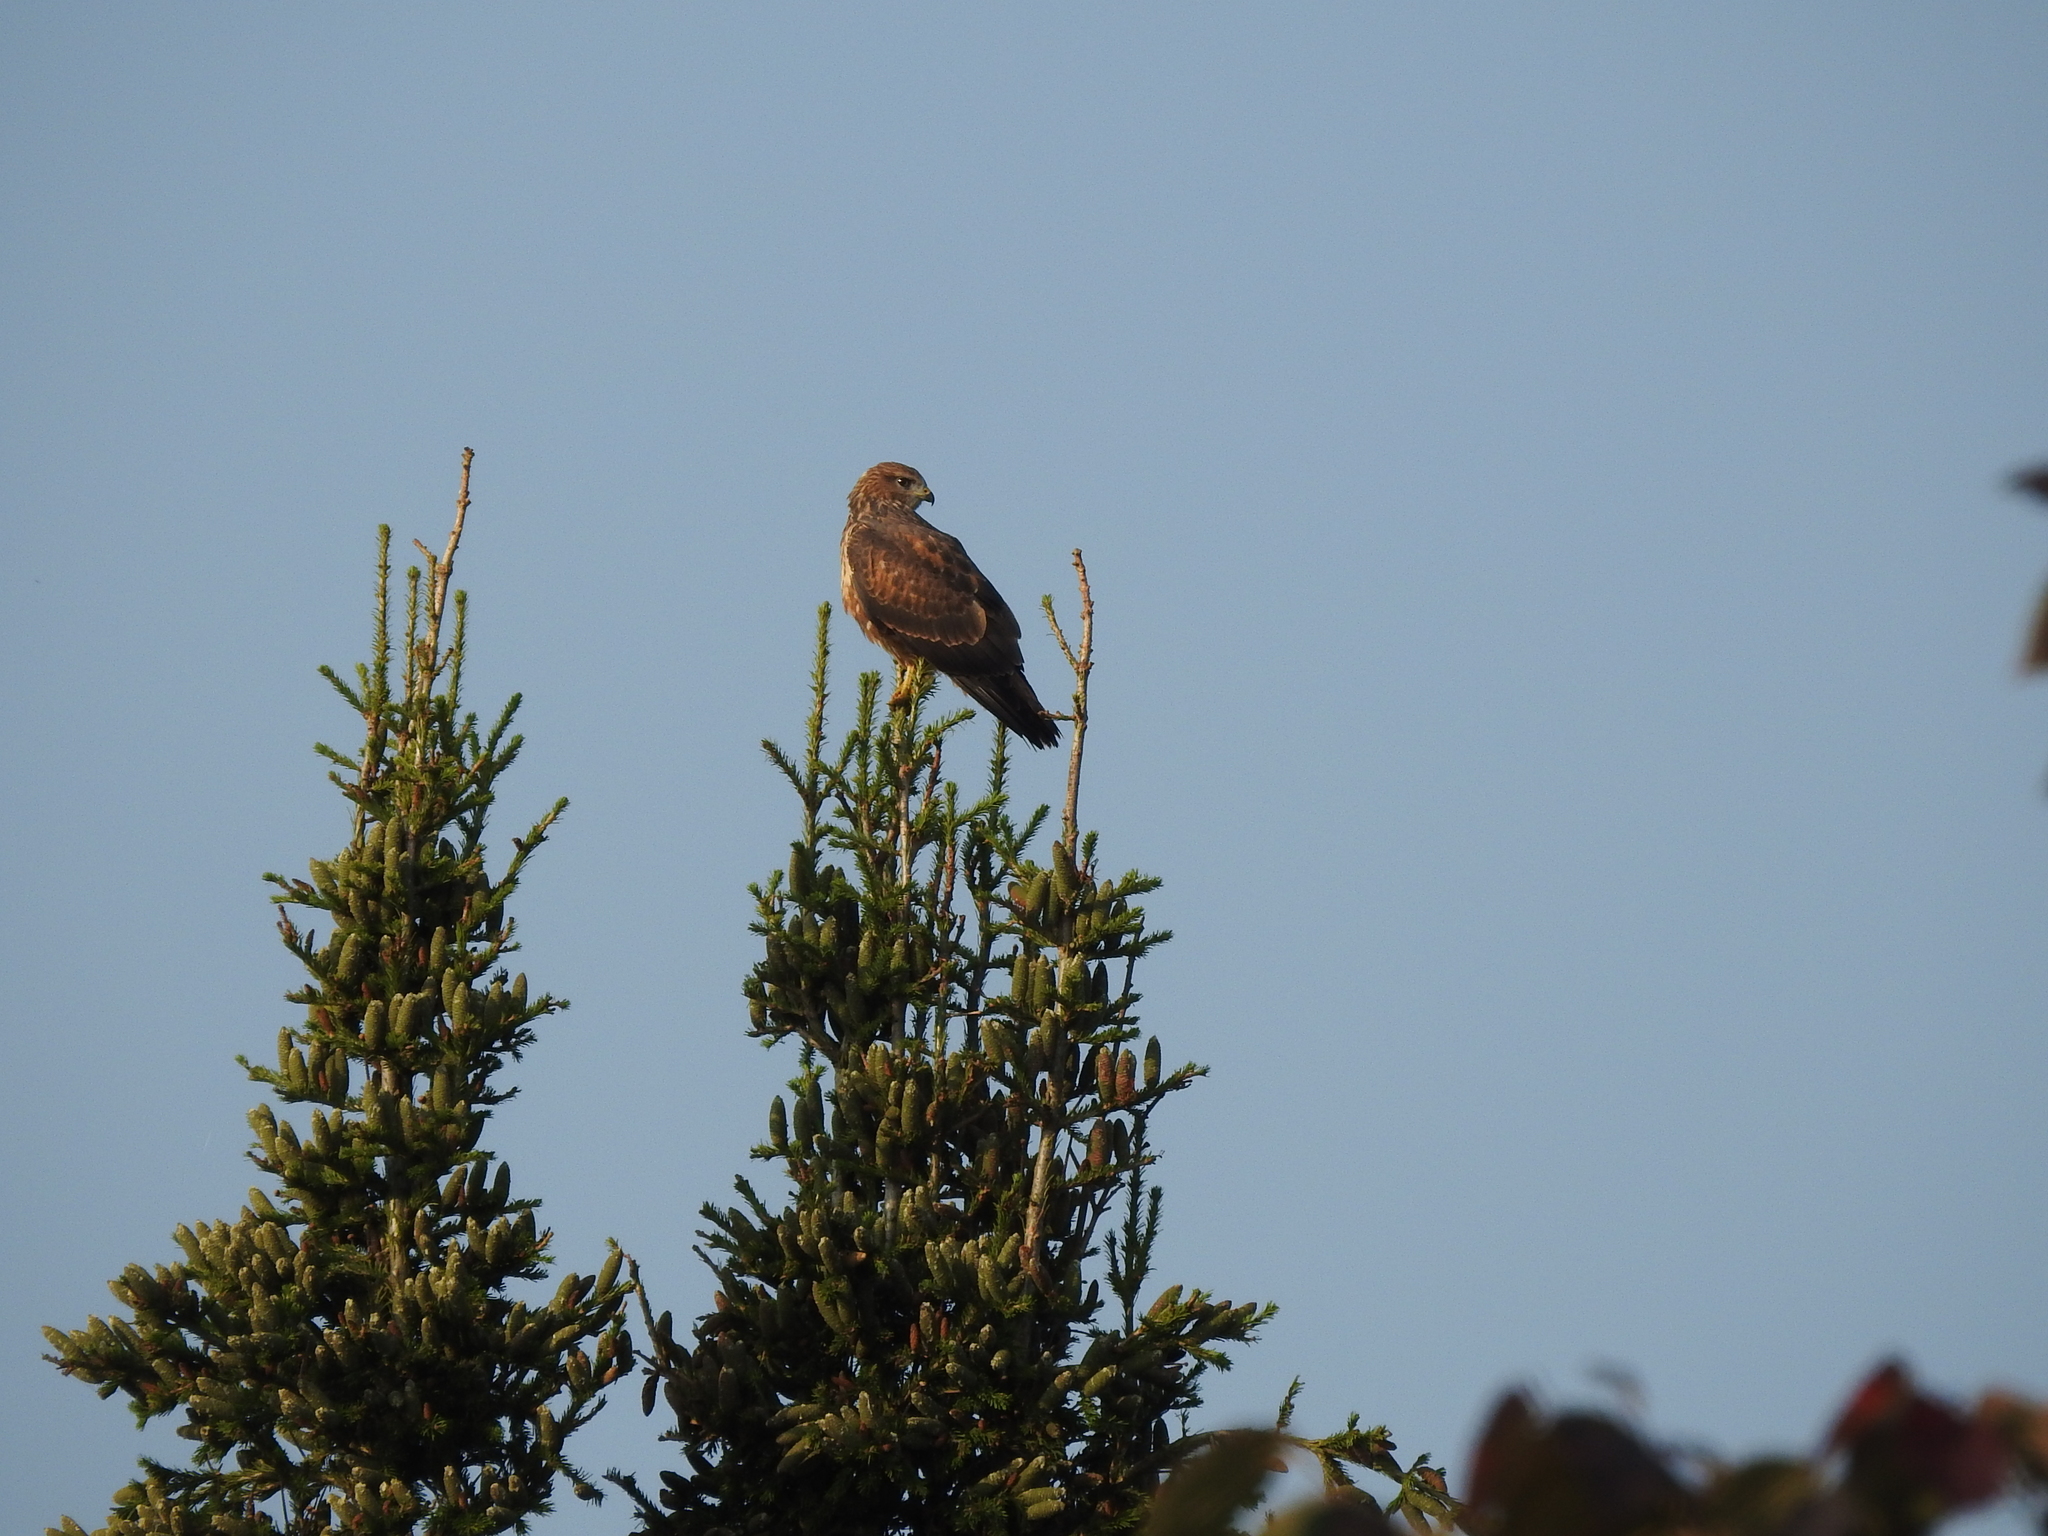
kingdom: Animalia
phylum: Chordata
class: Aves
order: Accipitriformes
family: Accipitridae
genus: Buteo
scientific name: Buteo buteo
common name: Common buzzard
